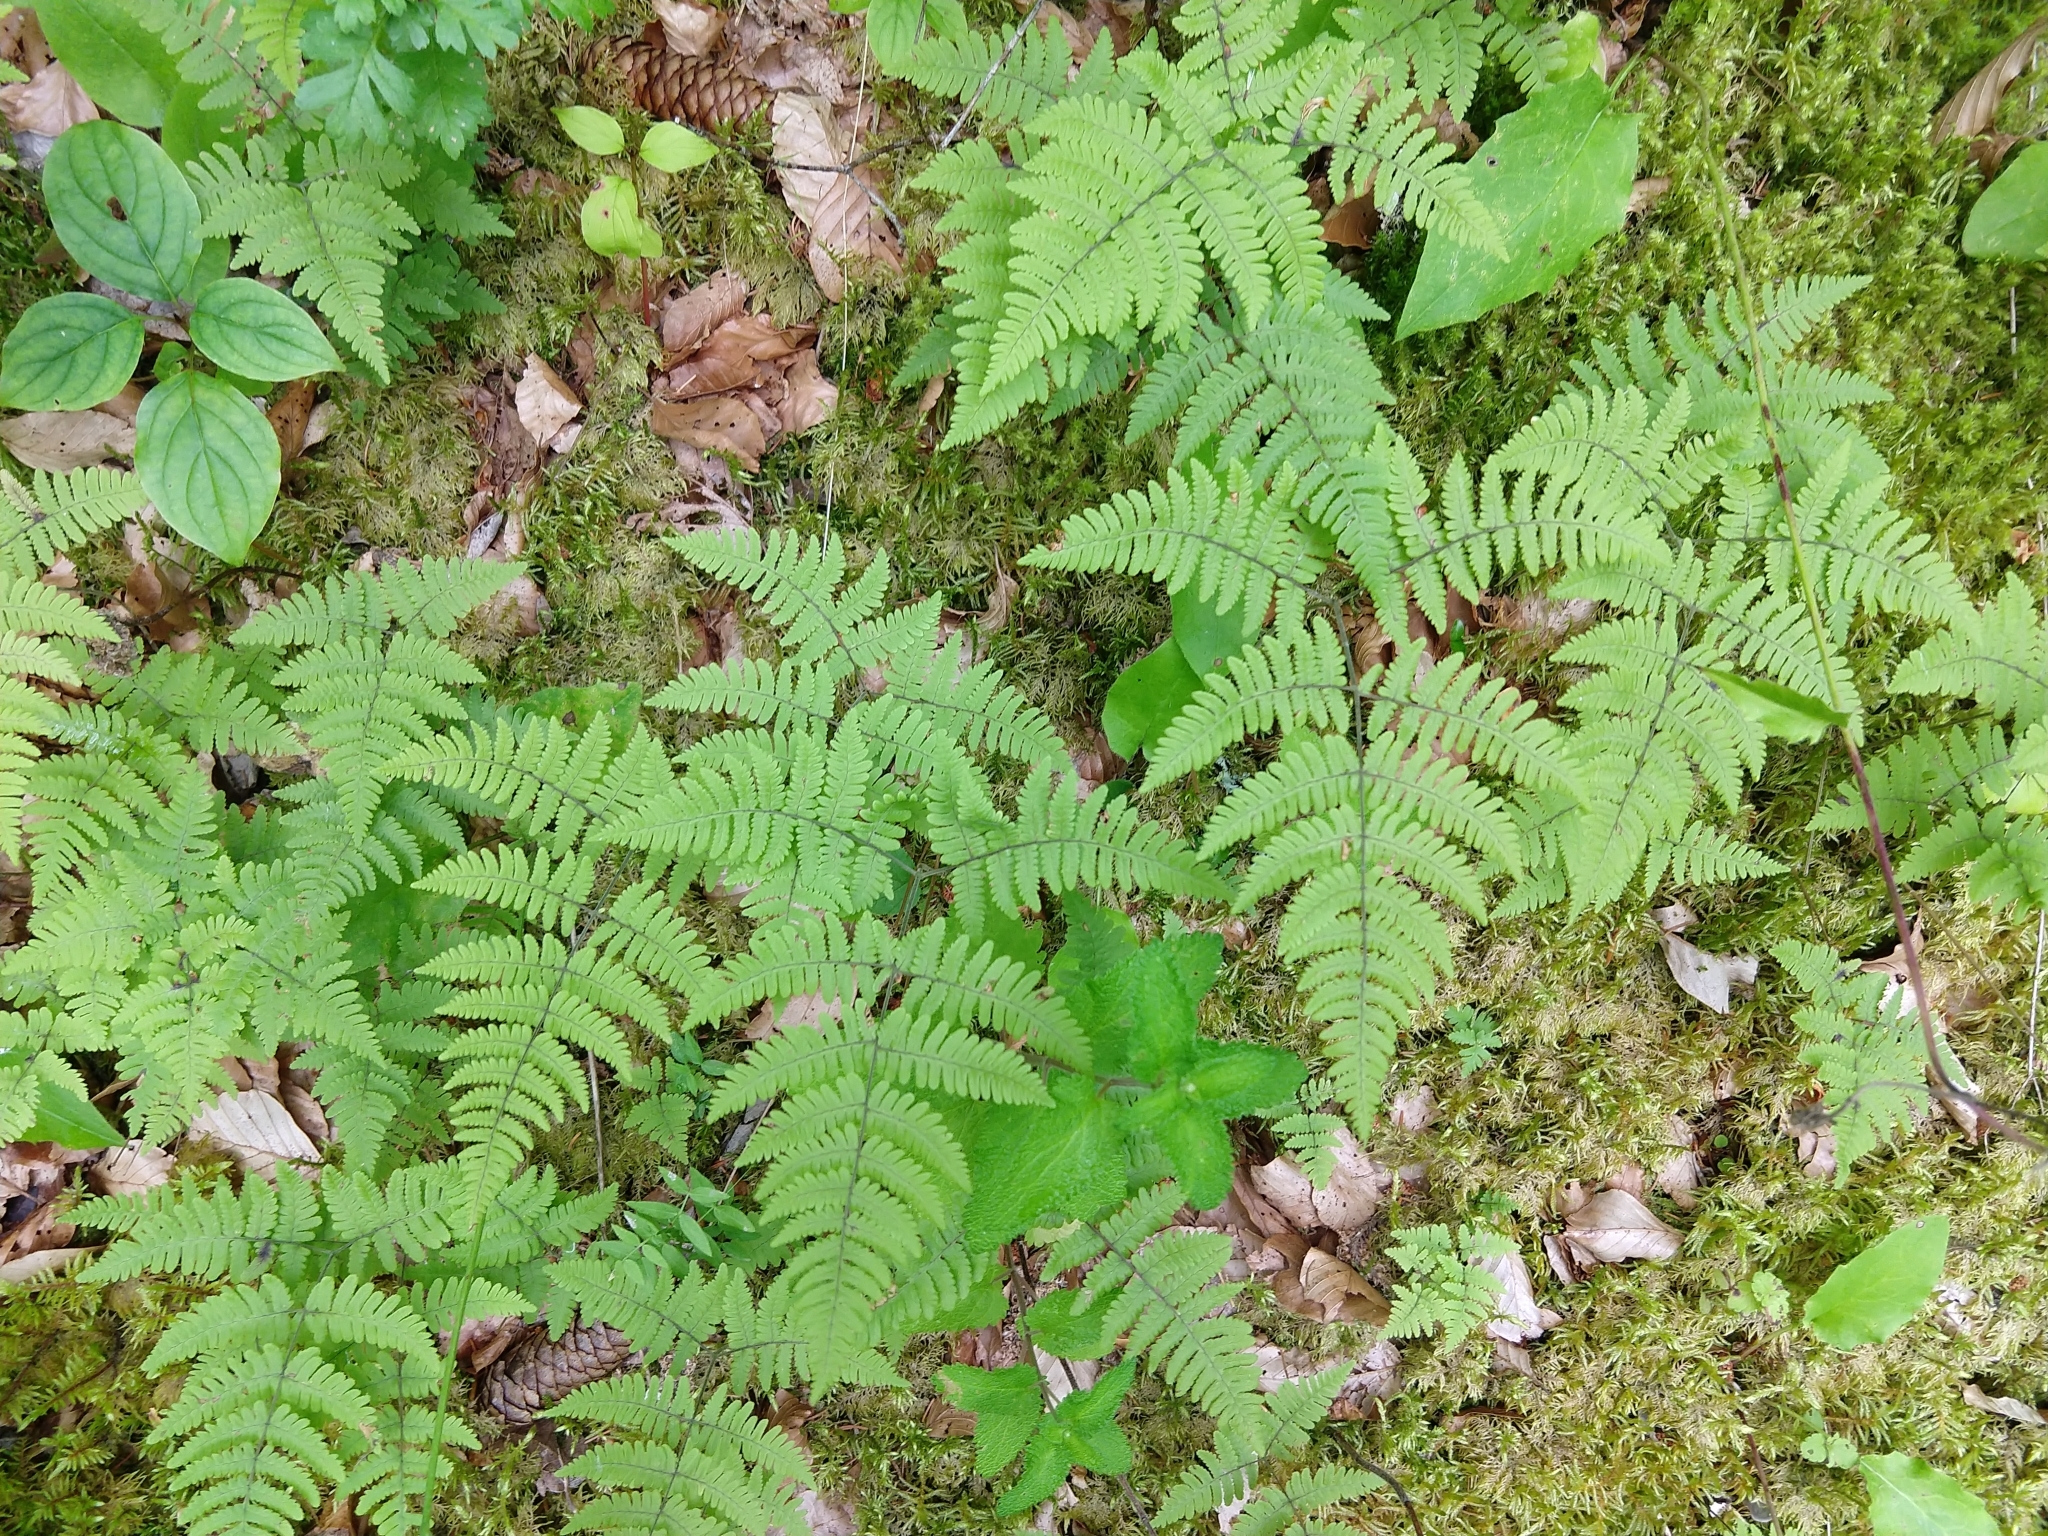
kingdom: Plantae
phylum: Tracheophyta
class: Polypodiopsida
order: Polypodiales
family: Cystopteridaceae
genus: Gymnocarpium
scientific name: Gymnocarpium robertianum
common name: Limestone fern
